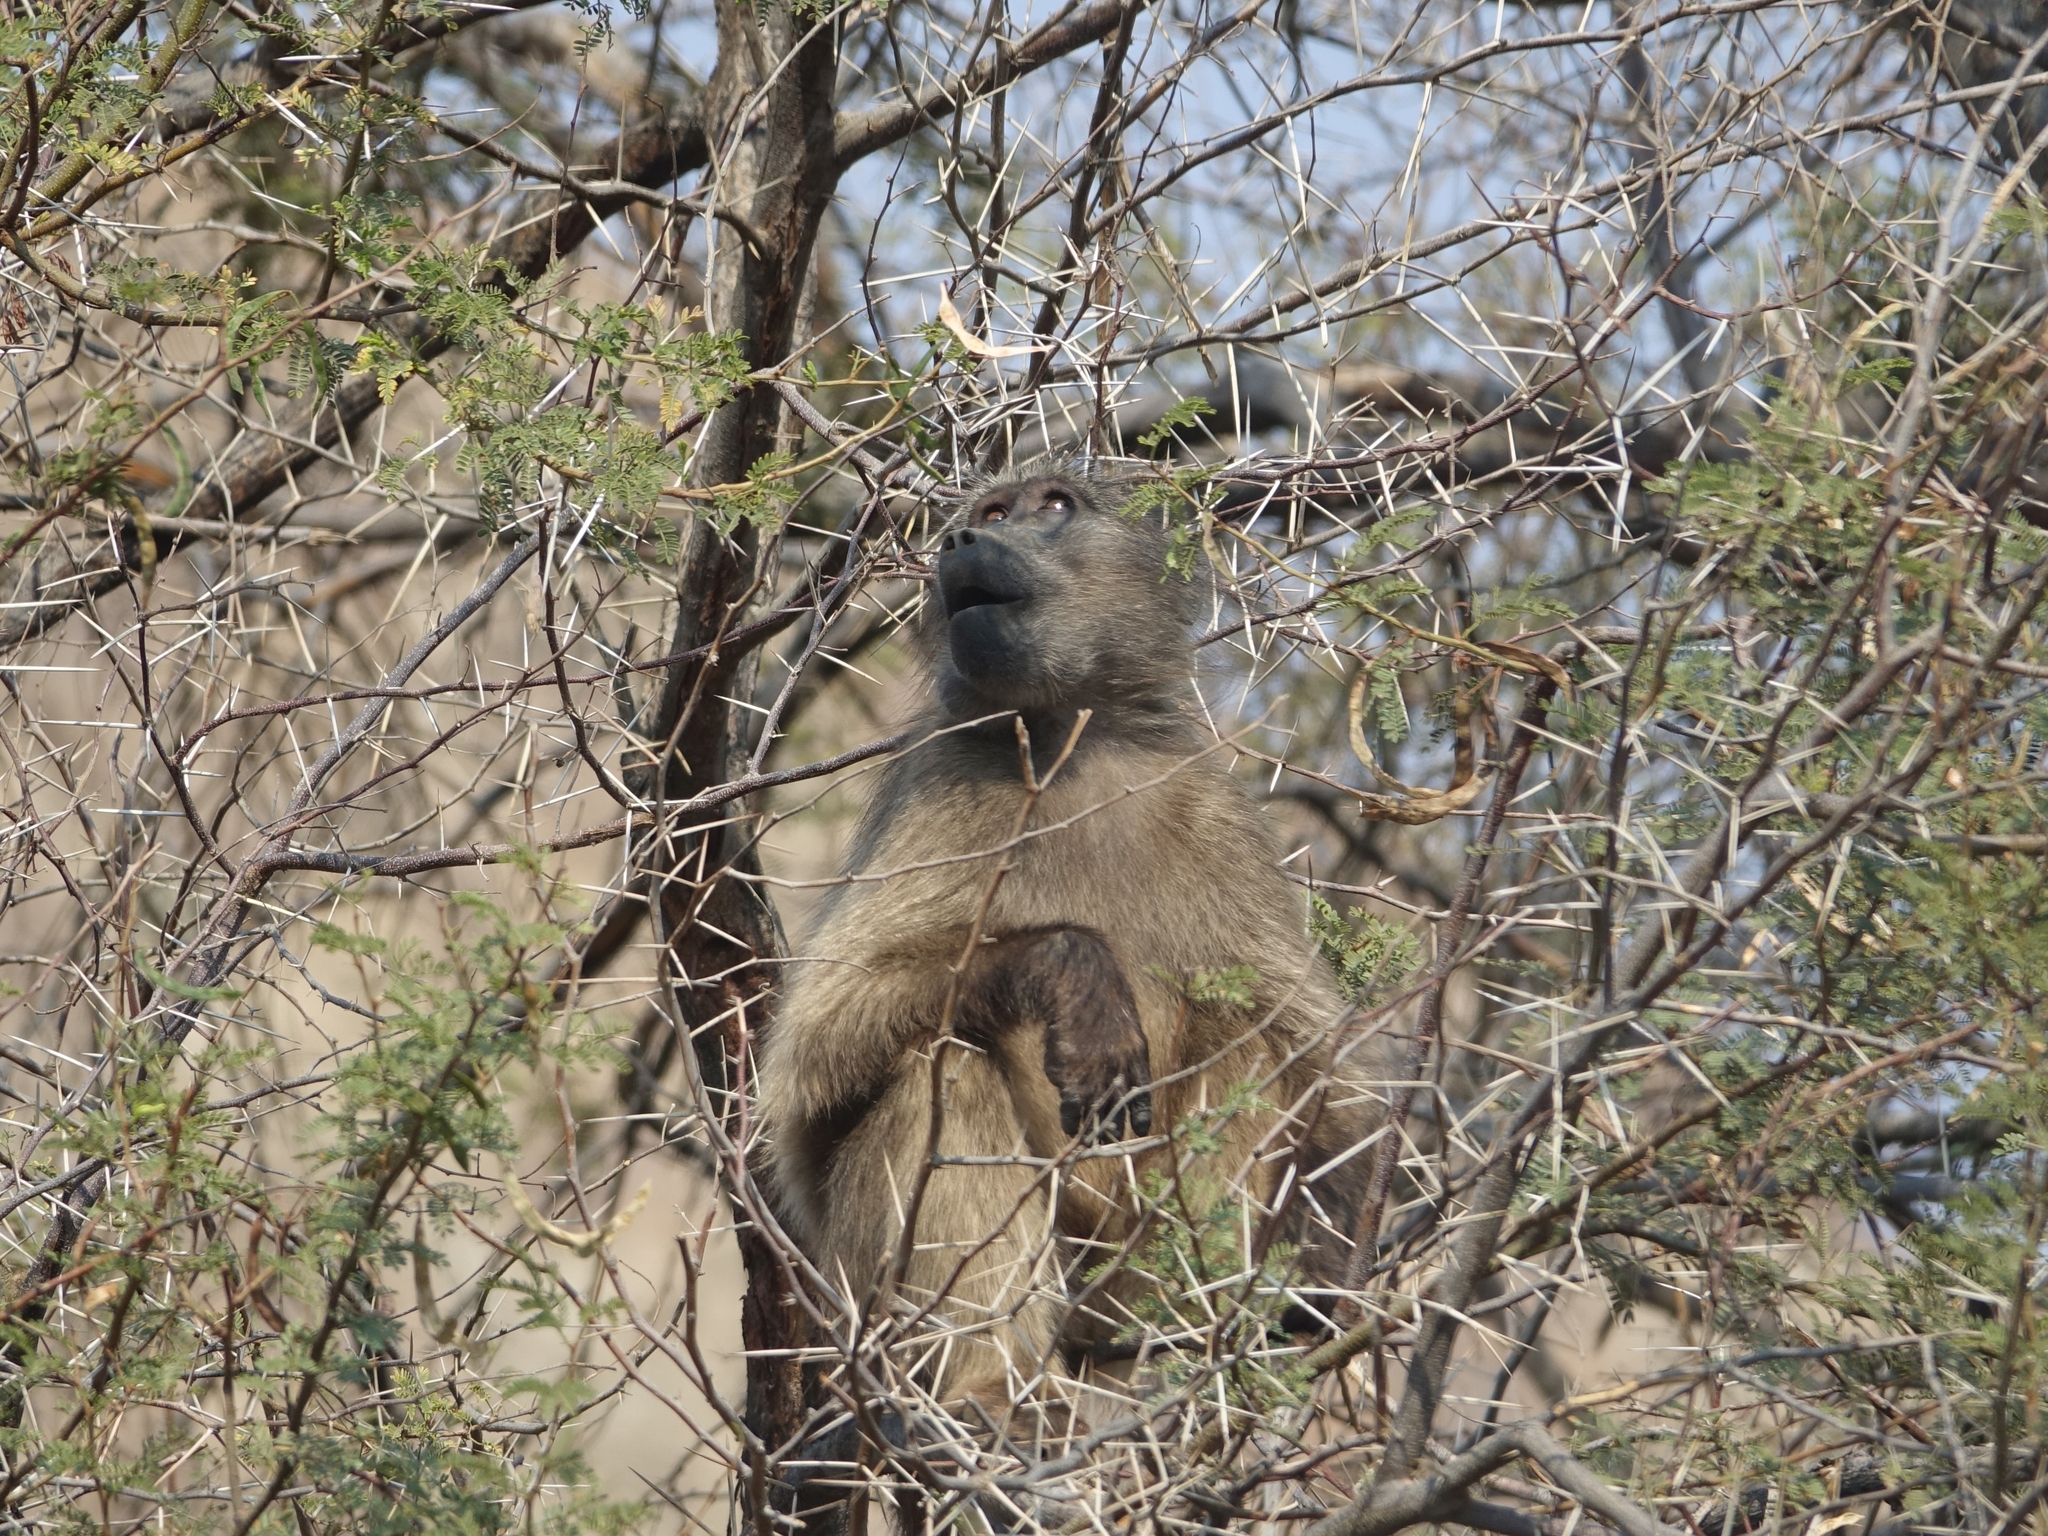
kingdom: Animalia
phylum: Chordata
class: Mammalia
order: Primates
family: Cercopithecidae
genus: Papio
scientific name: Papio ursinus
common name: Chacma baboon
